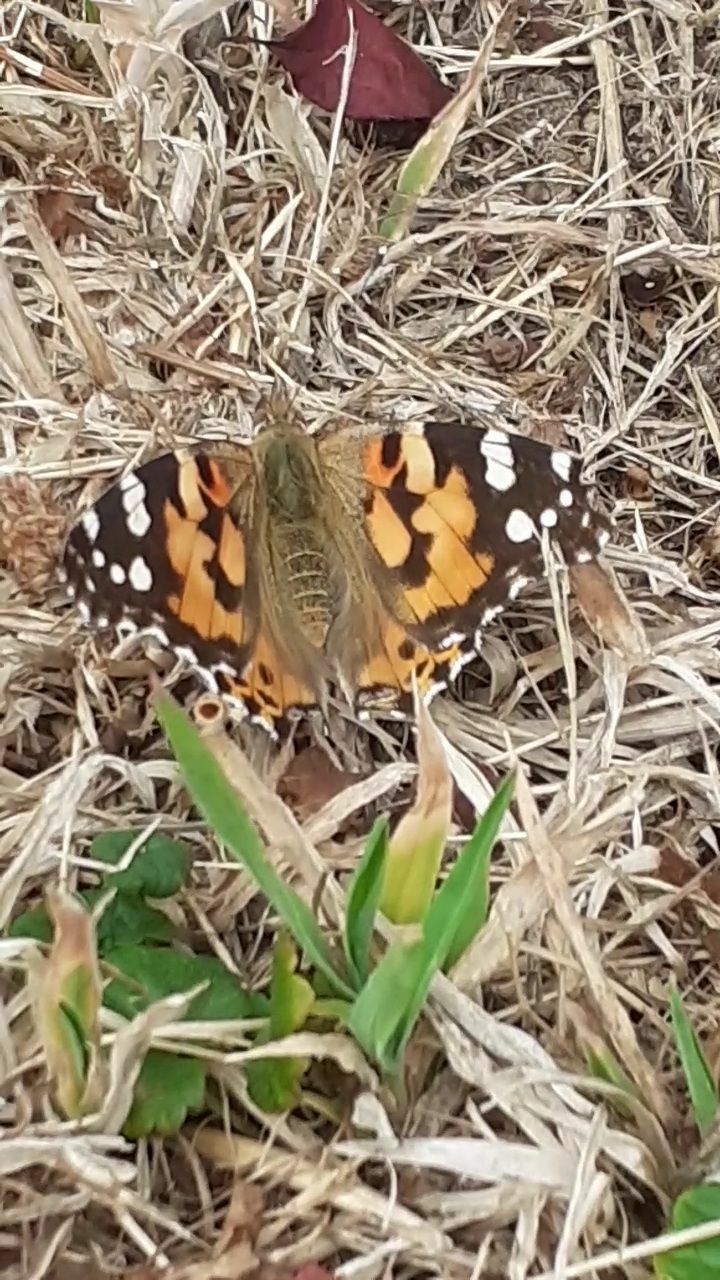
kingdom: Animalia
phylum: Arthropoda
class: Insecta
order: Lepidoptera
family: Nymphalidae
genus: Vanessa
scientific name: Vanessa cardui
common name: Painted lady
